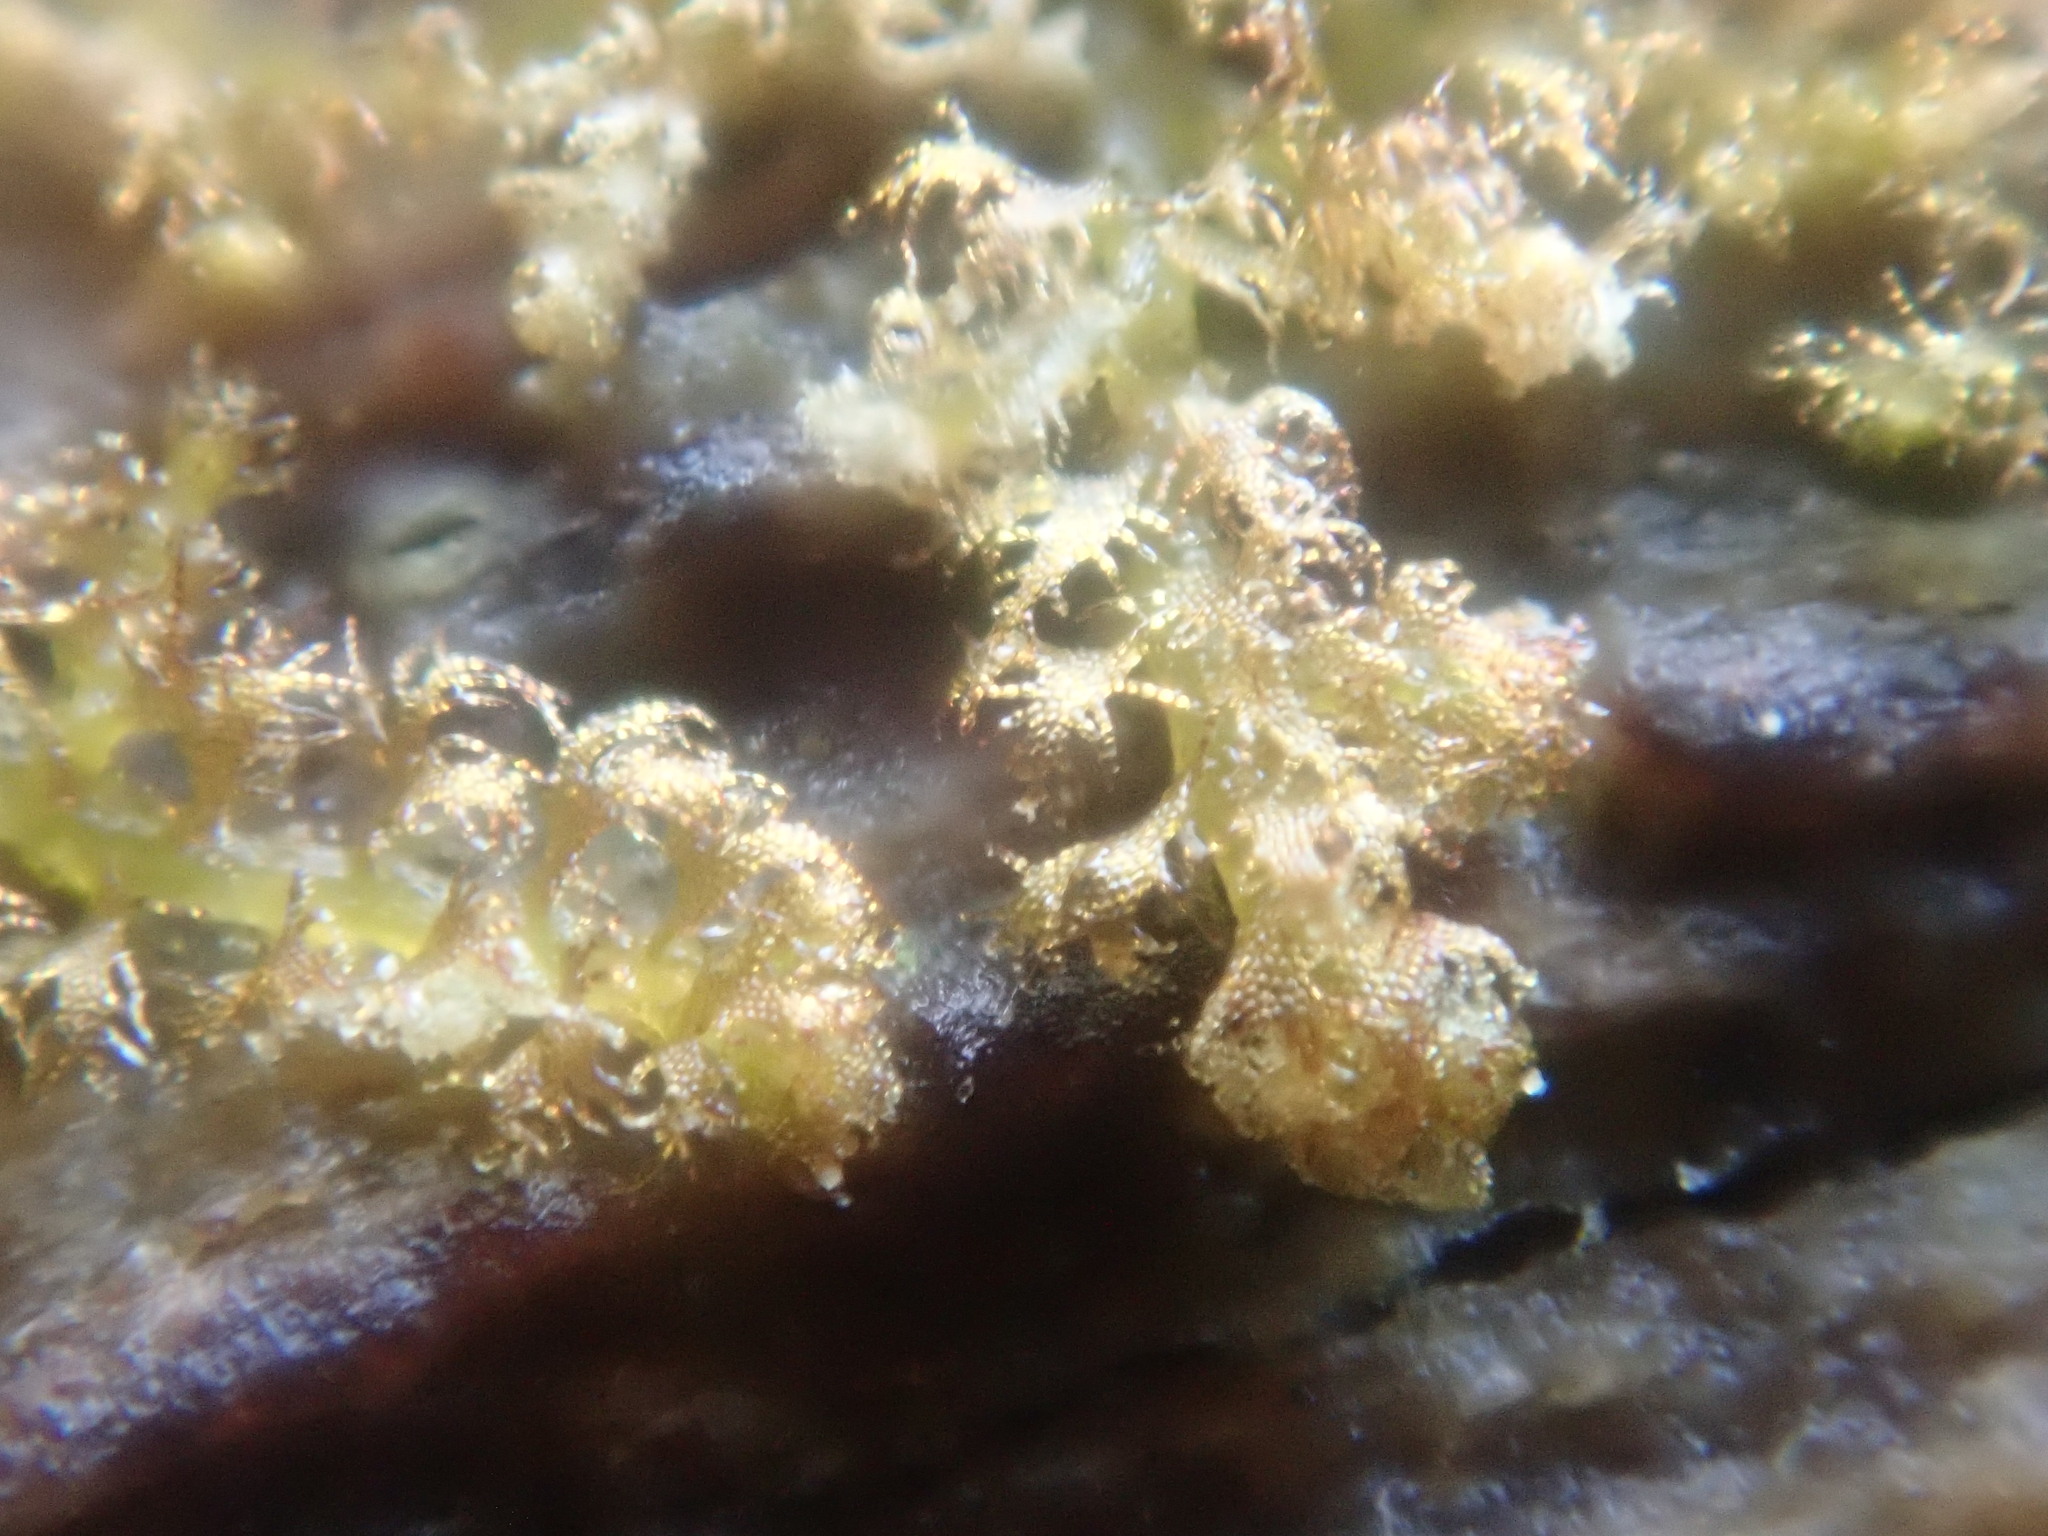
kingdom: Plantae
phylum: Marchantiophyta
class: Jungermanniopsida
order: Ptilidiales
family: Ptilidiaceae
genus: Ptilidium
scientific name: Ptilidium pulcherrimum
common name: Tree fringewort
